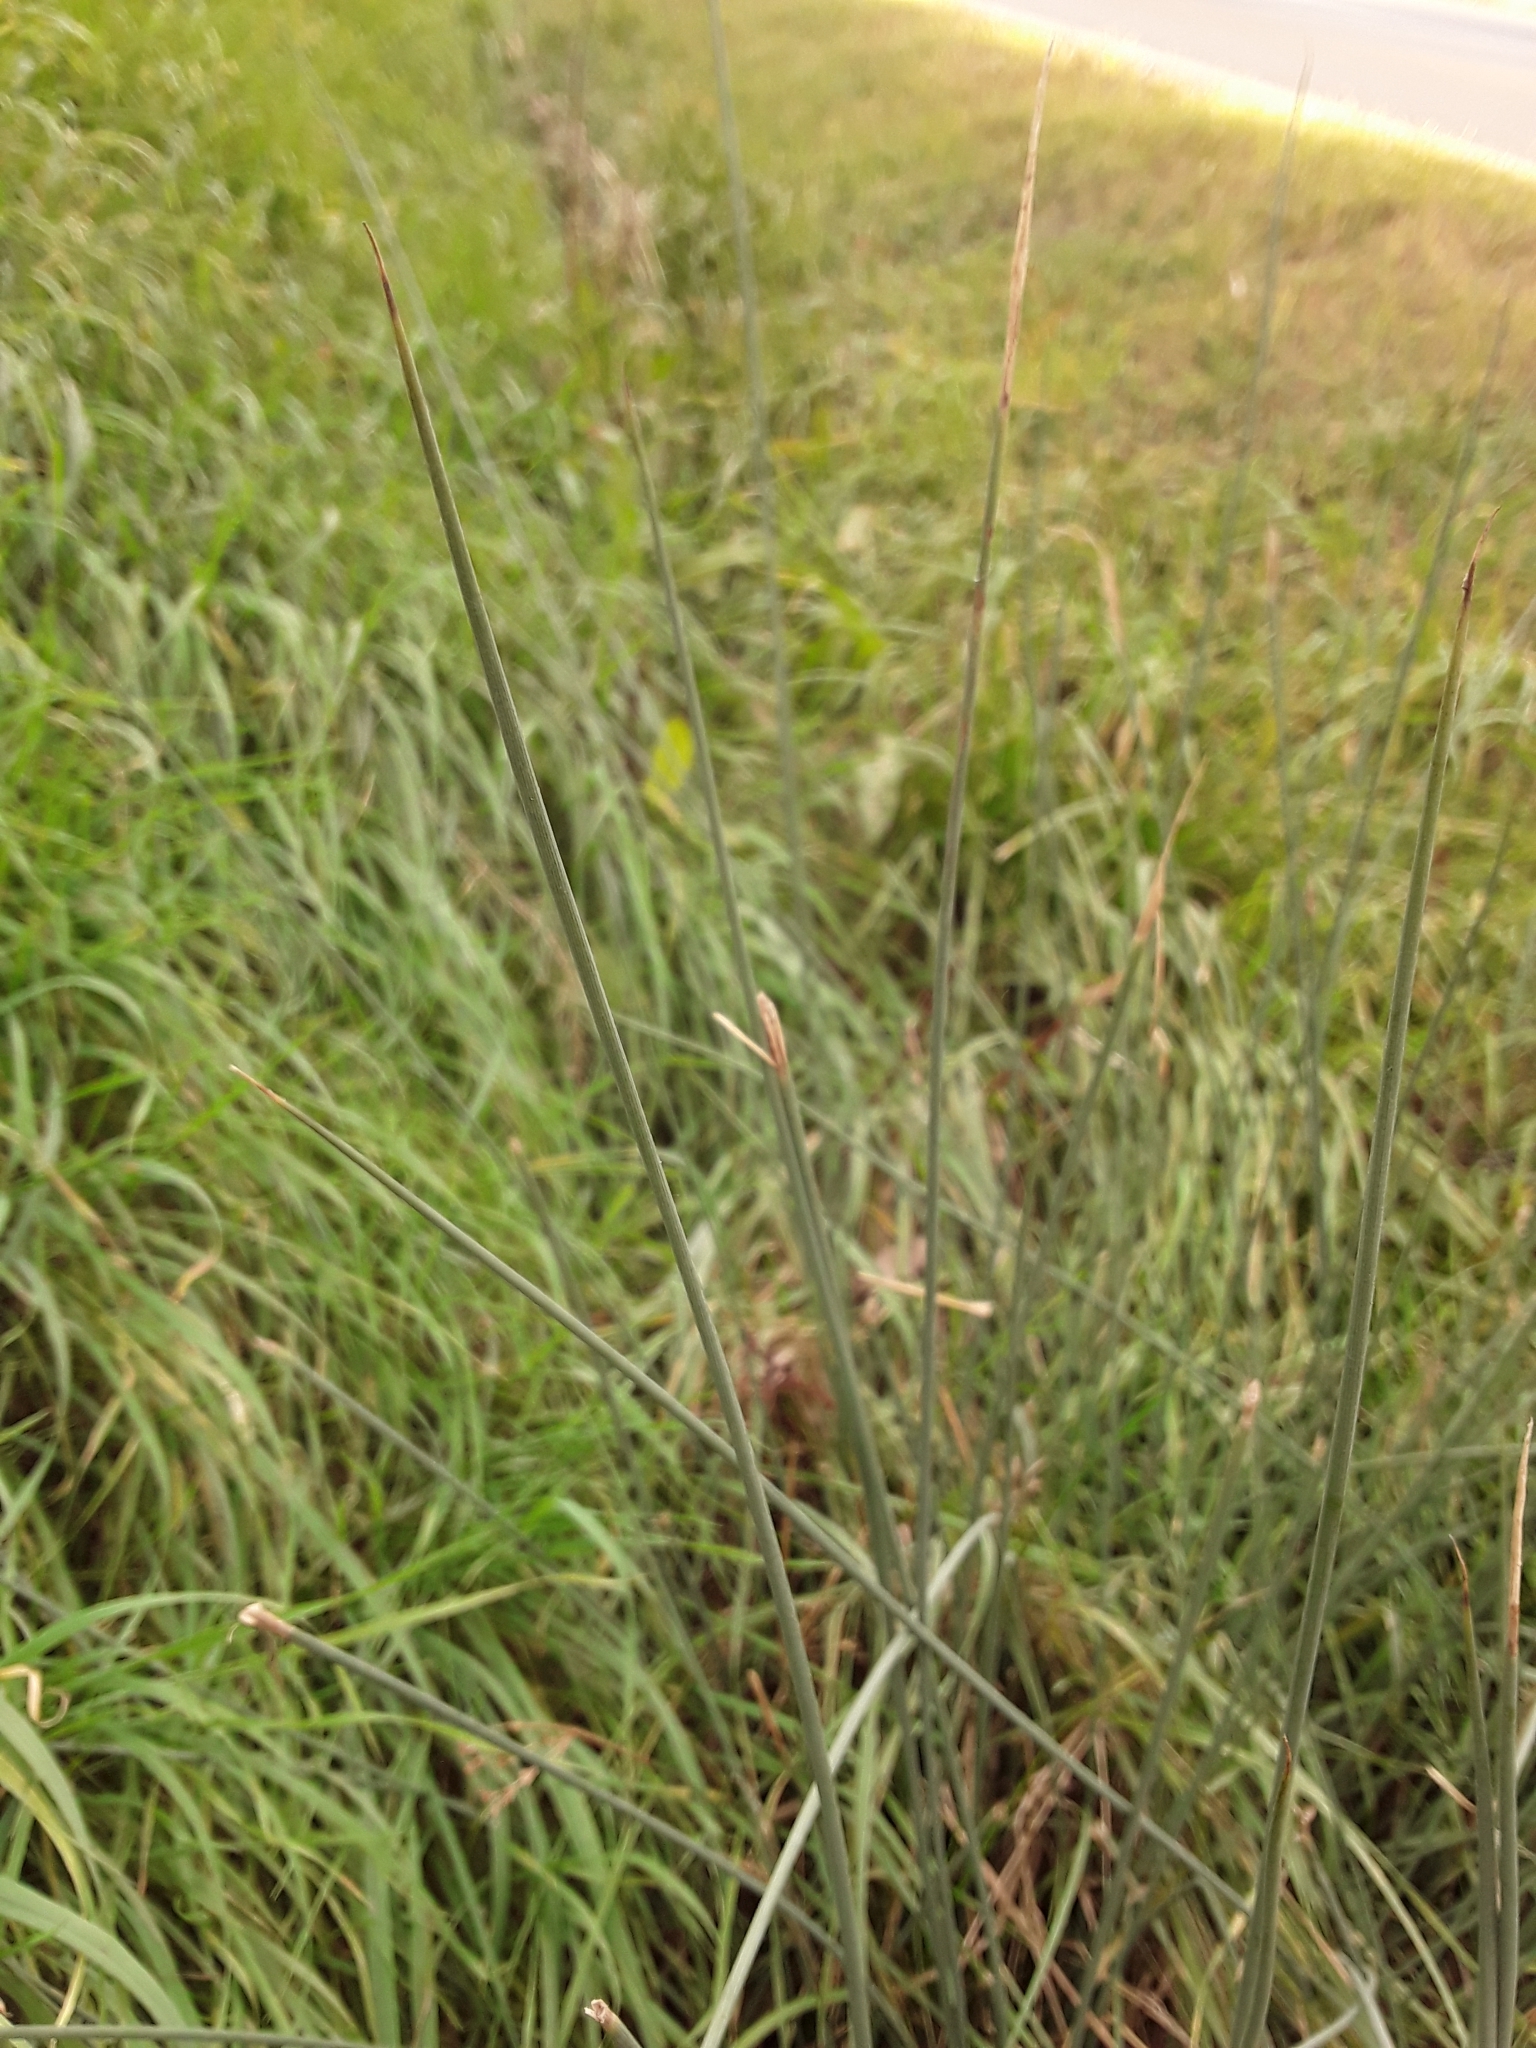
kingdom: Plantae
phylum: Tracheophyta
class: Liliopsida
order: Poales
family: Juncaceae
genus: Juncus
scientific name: Juncus inflexus
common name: Hard rush
